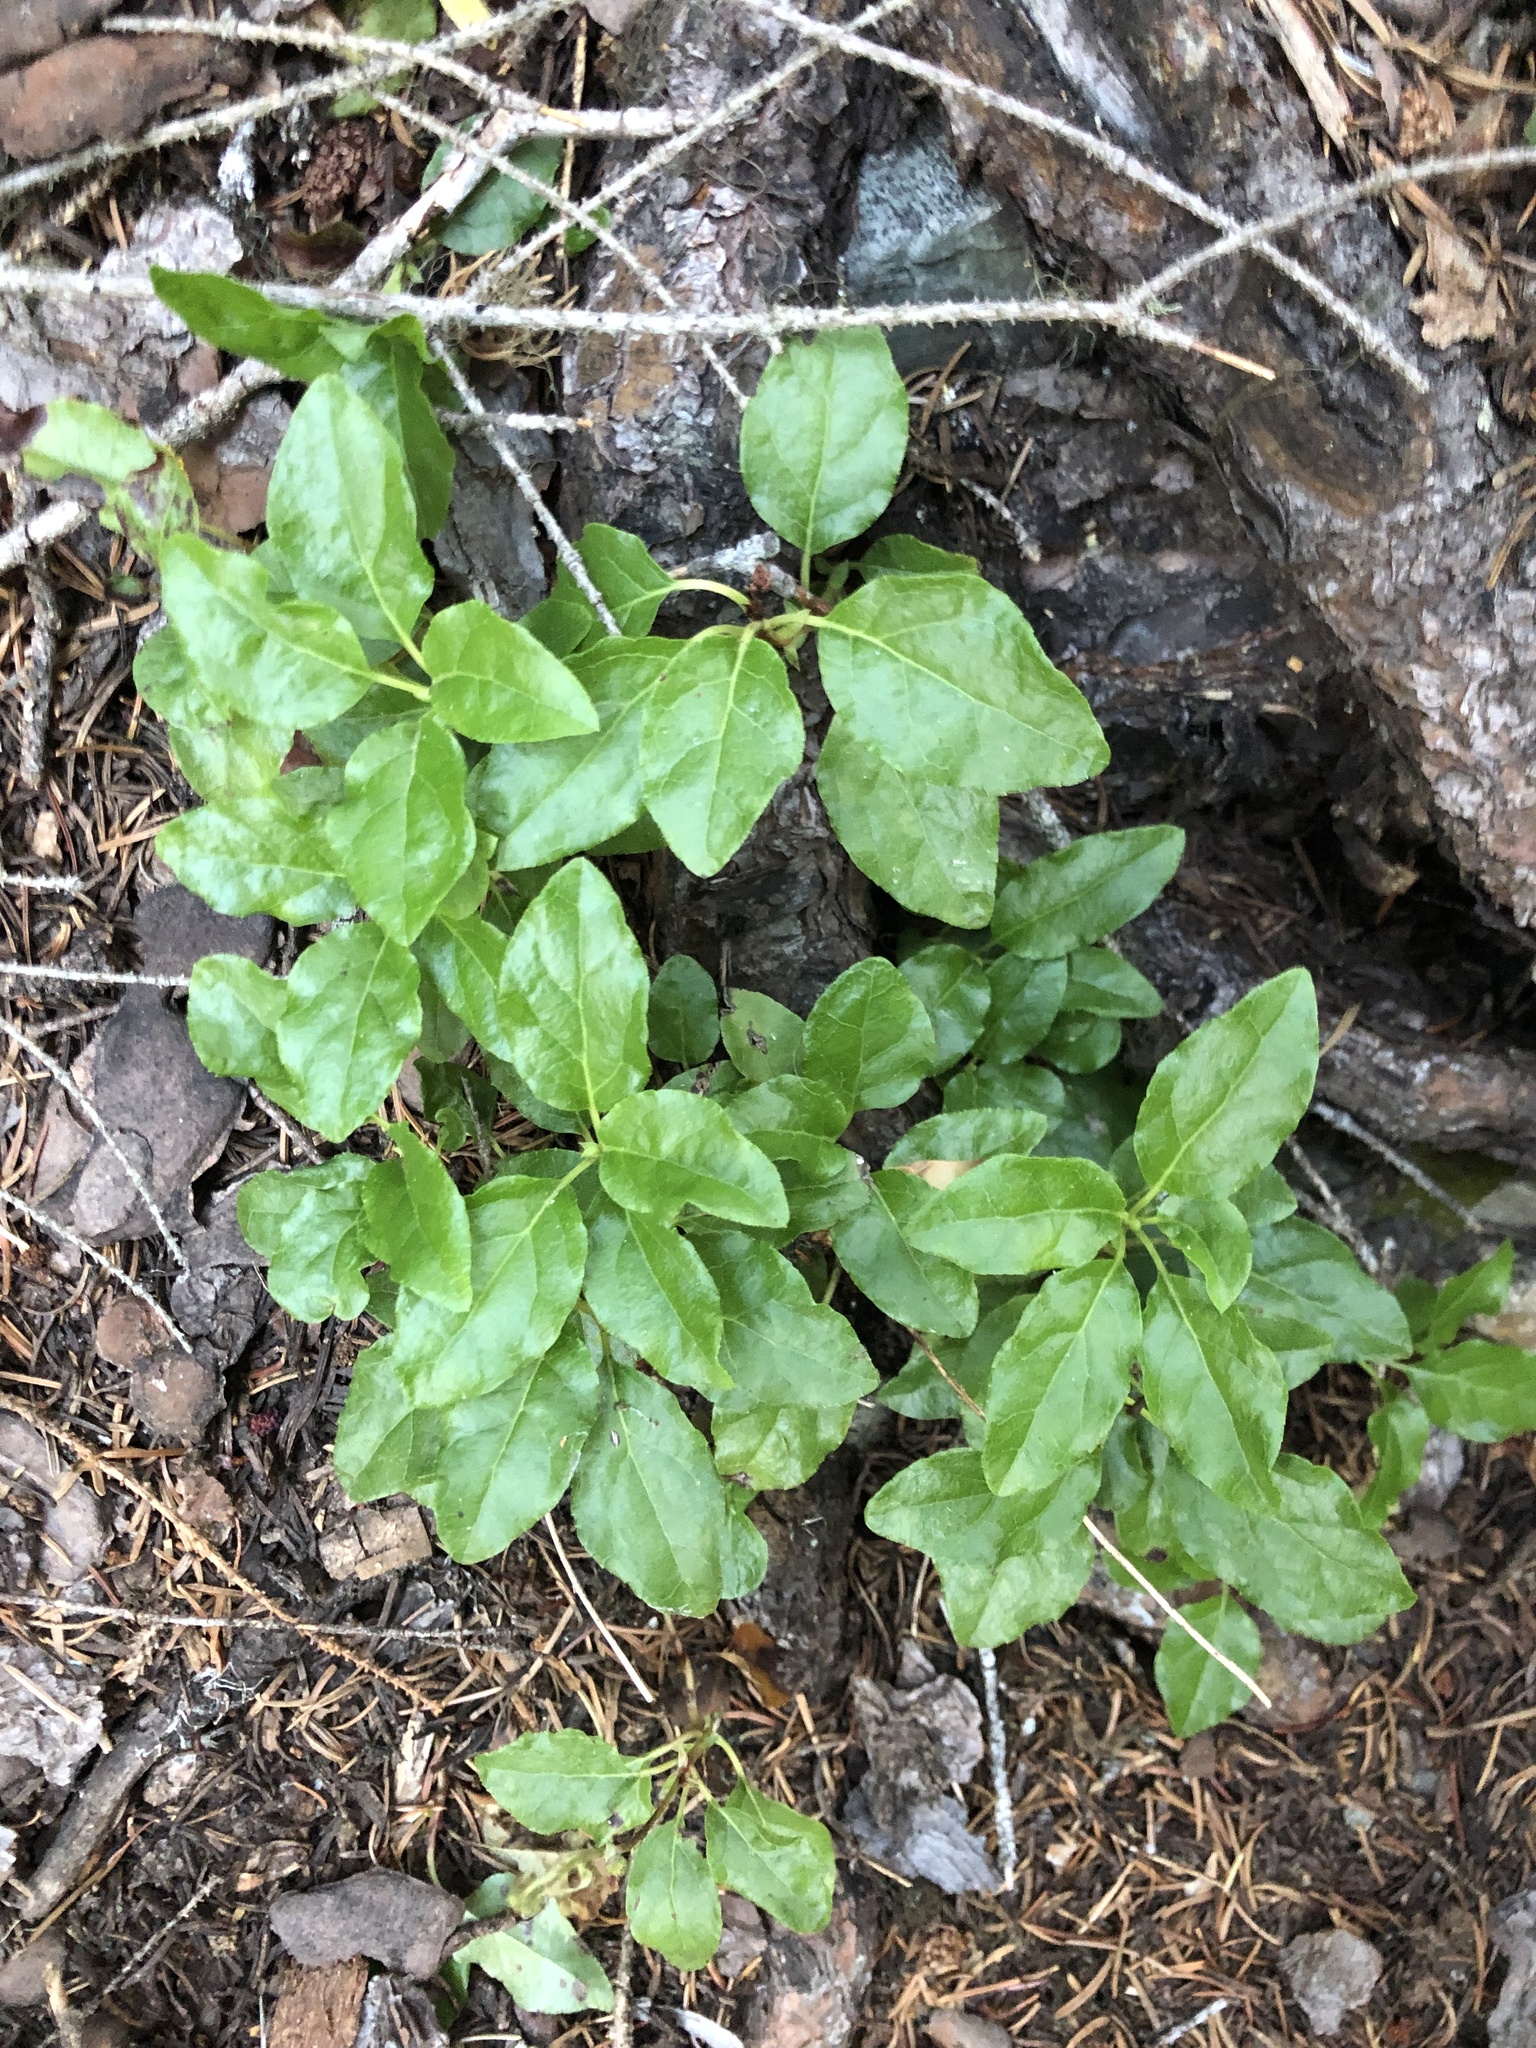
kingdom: Plantae
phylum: Tracheophyta
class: Magnoliopsida
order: Ericales
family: Ericaceae
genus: Orthilia
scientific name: Orthilia secunda
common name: One-sided orthilia
